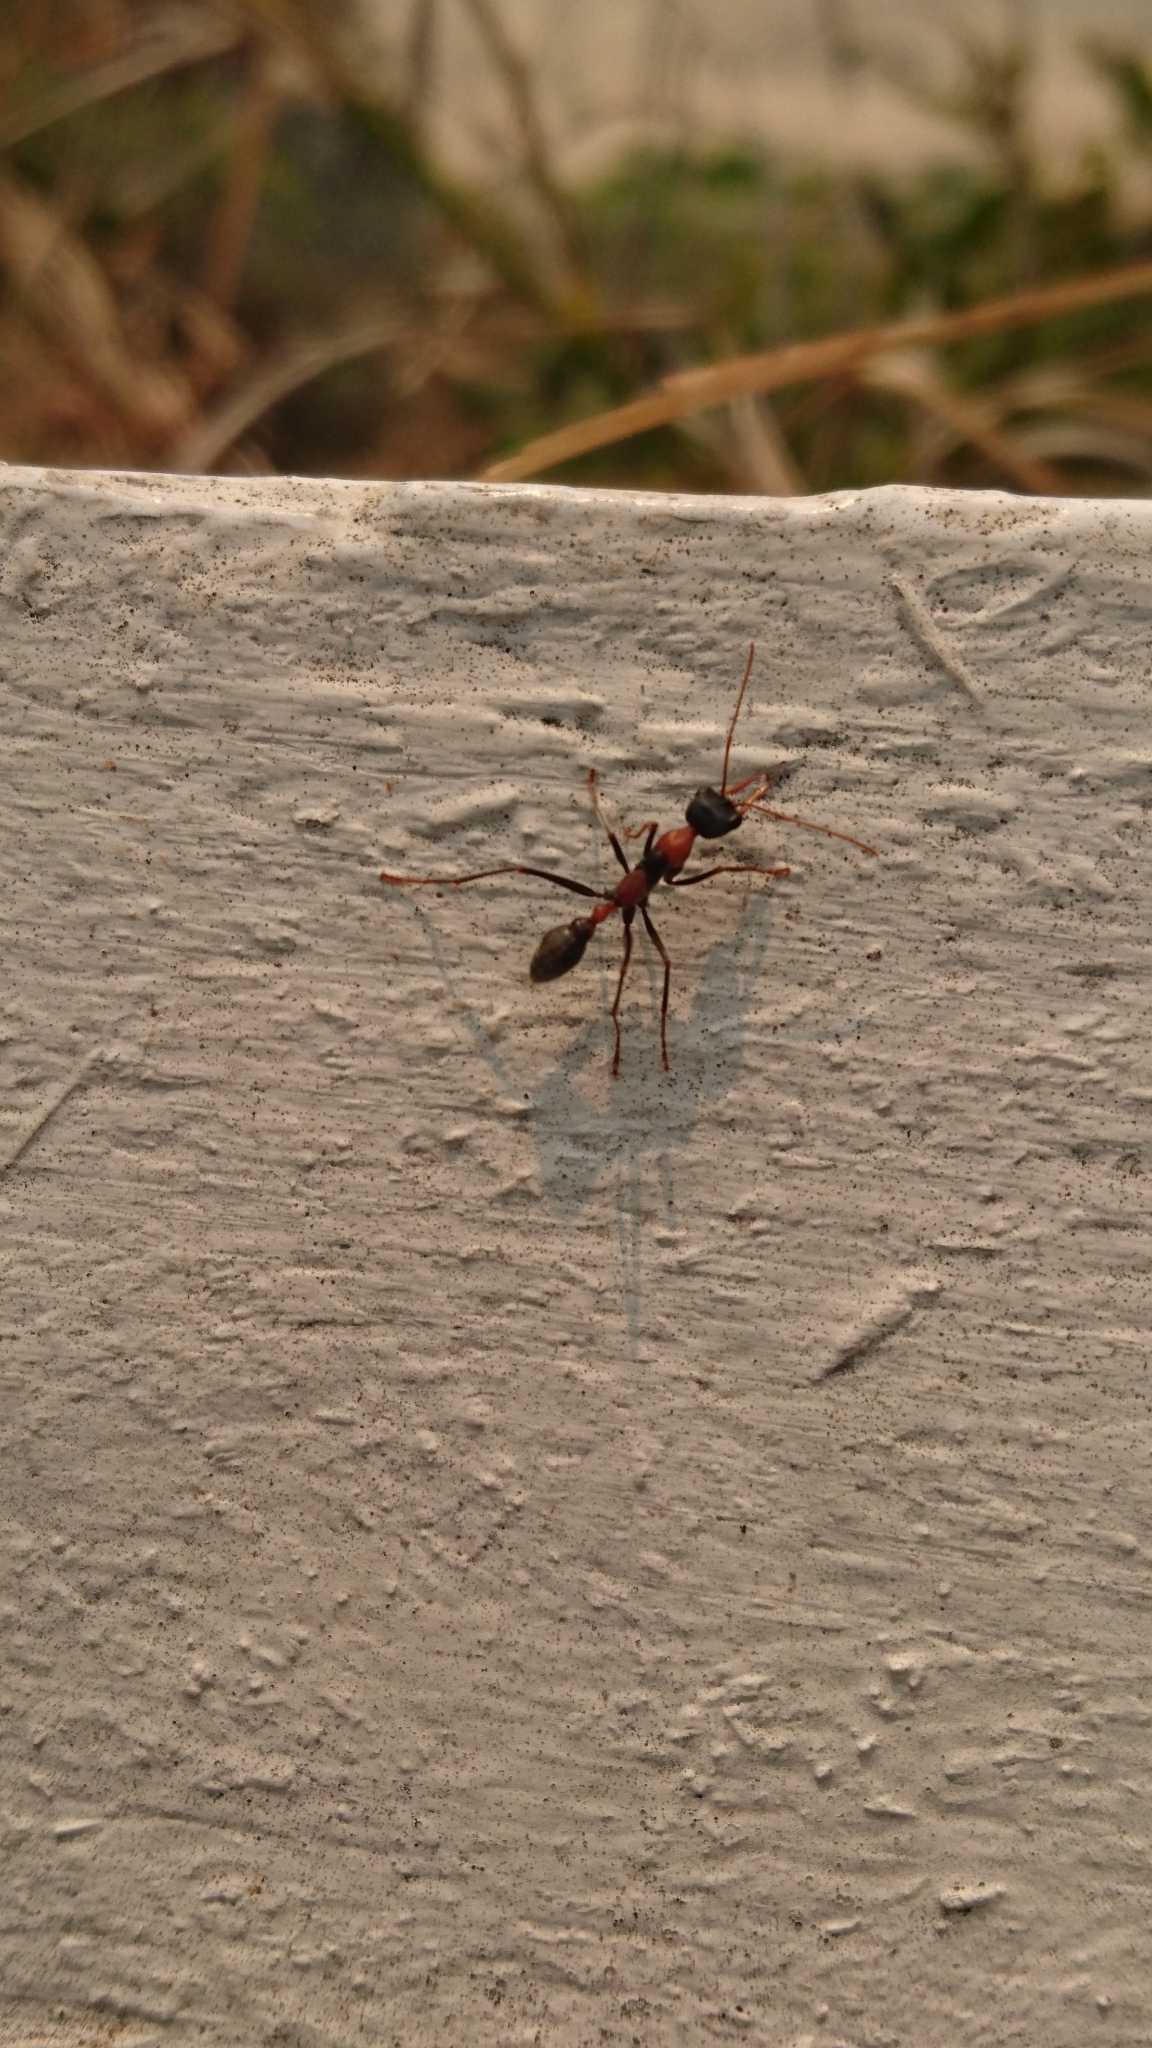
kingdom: Animalia
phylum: Arthropoda
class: Insecta
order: Hymenoptera
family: Formicidae
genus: Myrmecia
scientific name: Myrmecia nigrocincta
